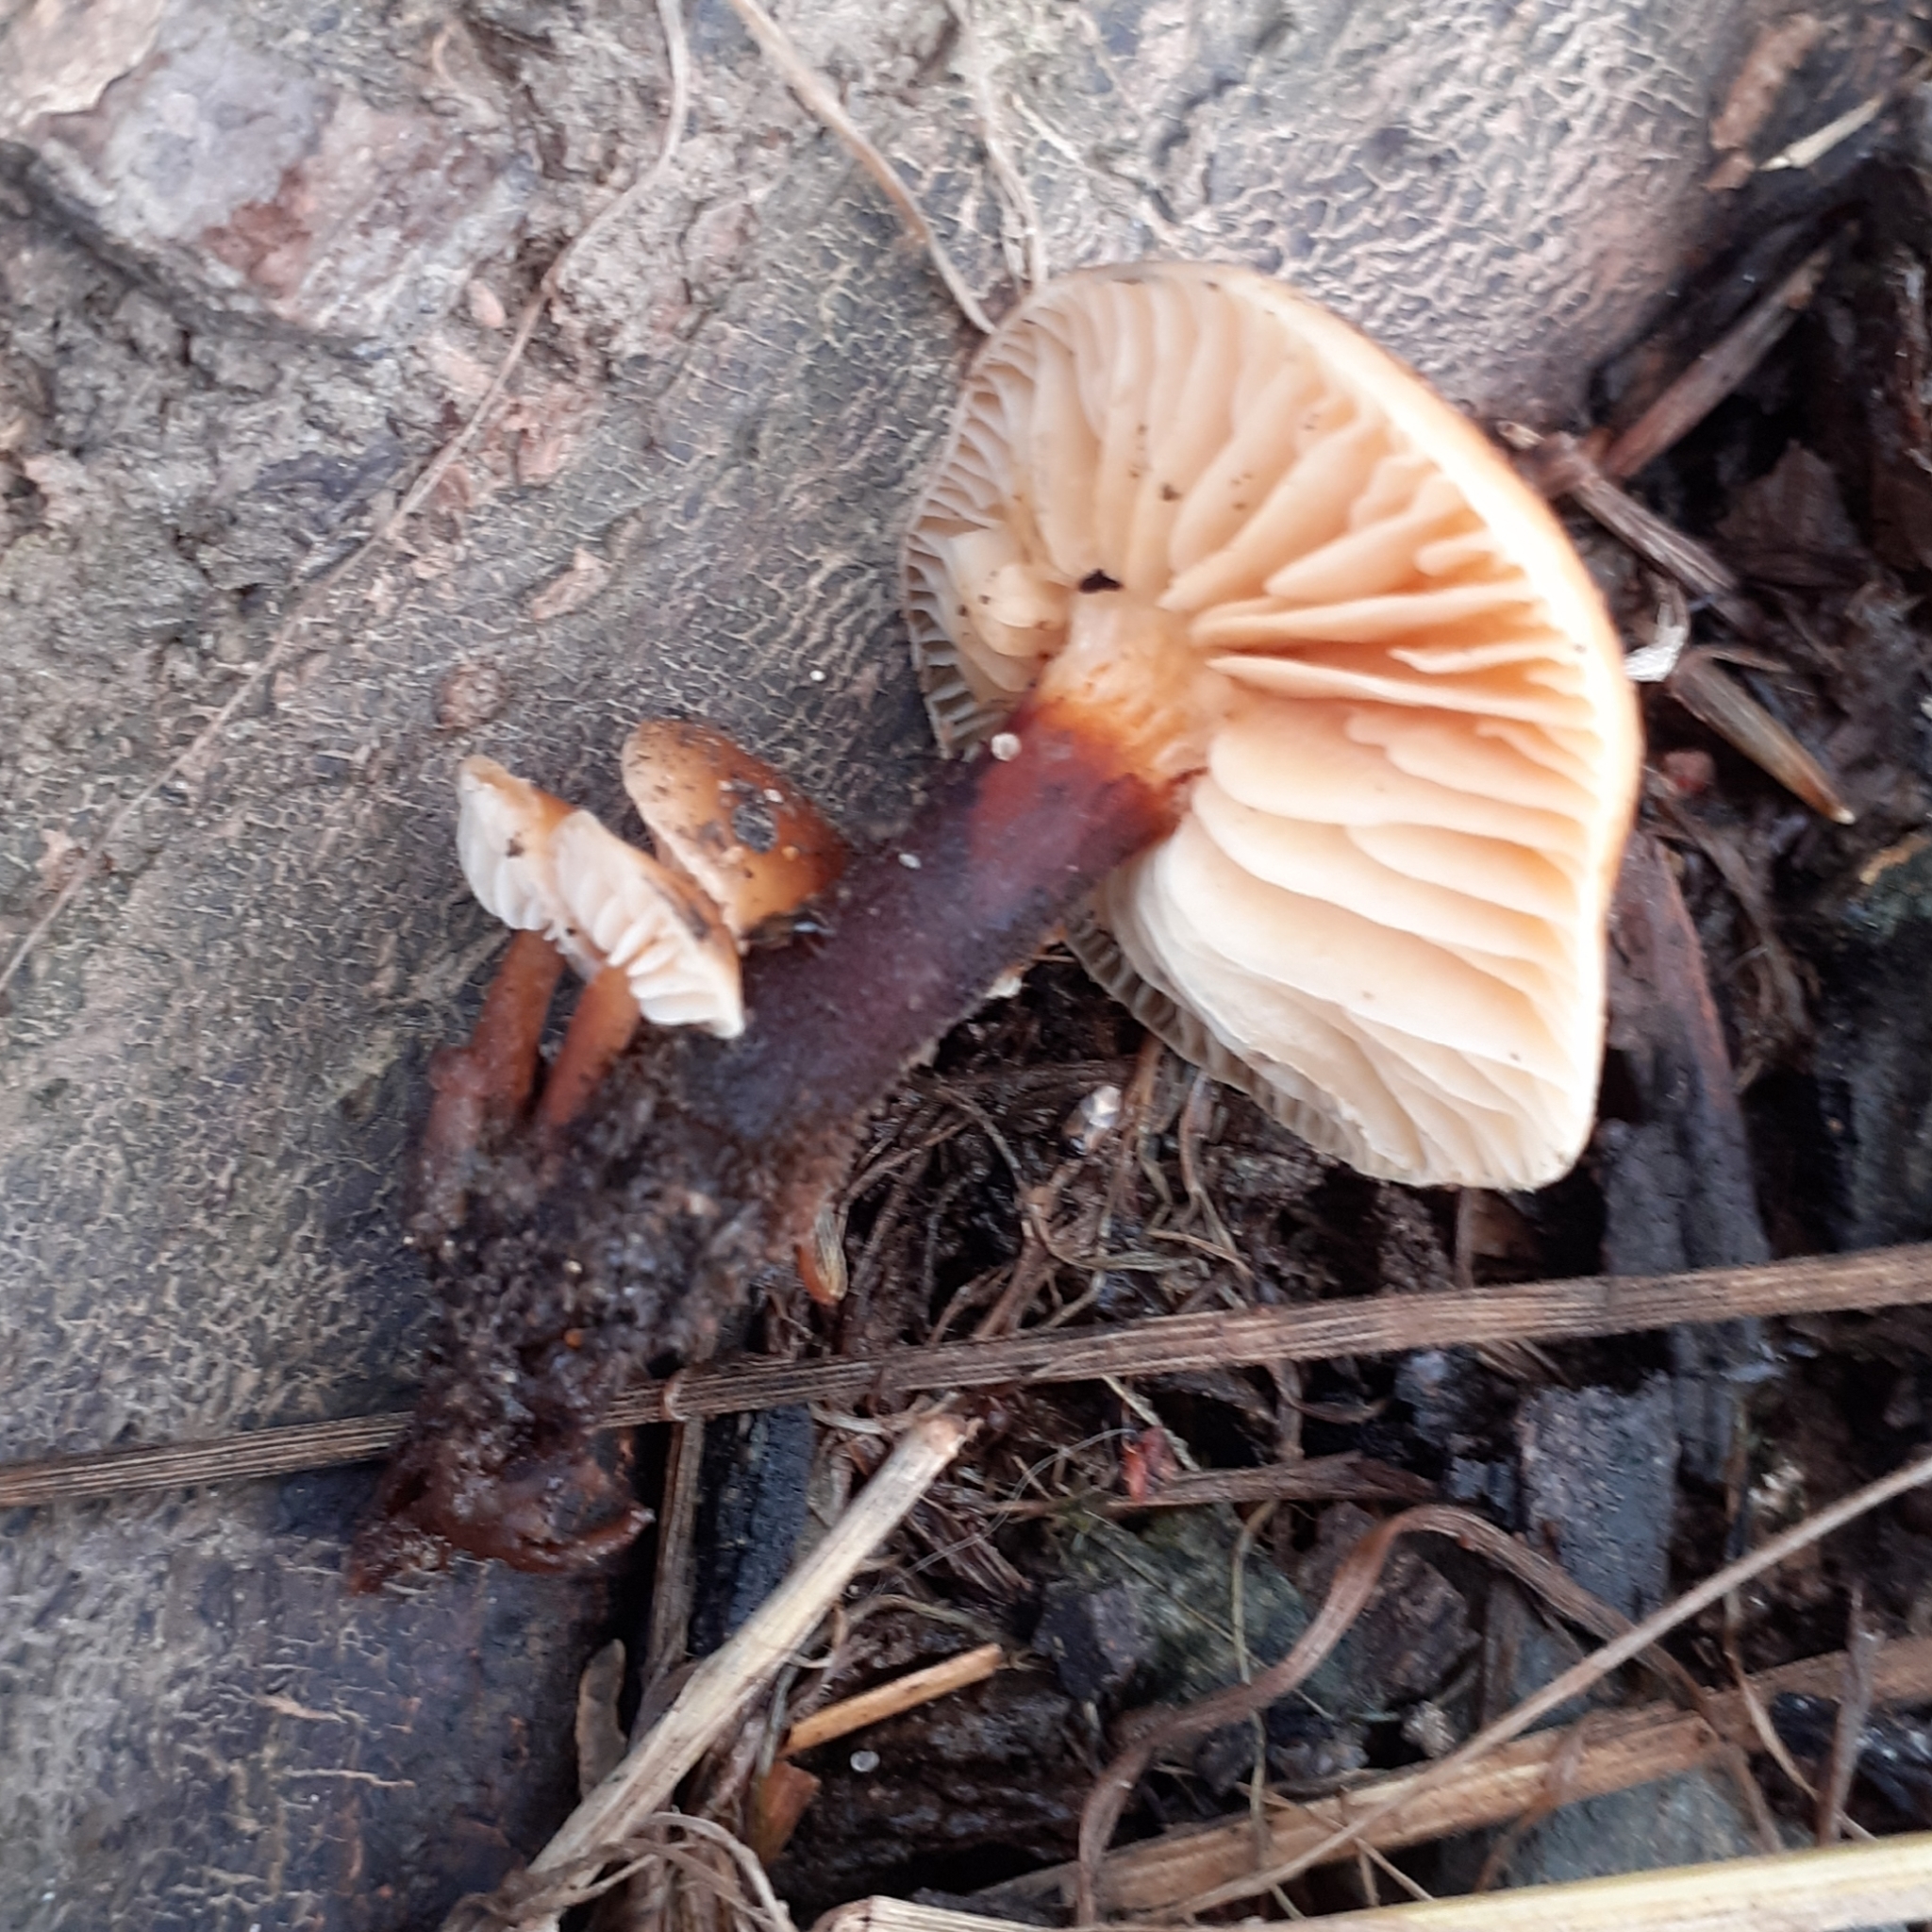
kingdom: Fungi
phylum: Basidiomycota
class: Agaricomycetes
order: Agaricales
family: Physalacriaceae
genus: Flammulina
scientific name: Flammulina
